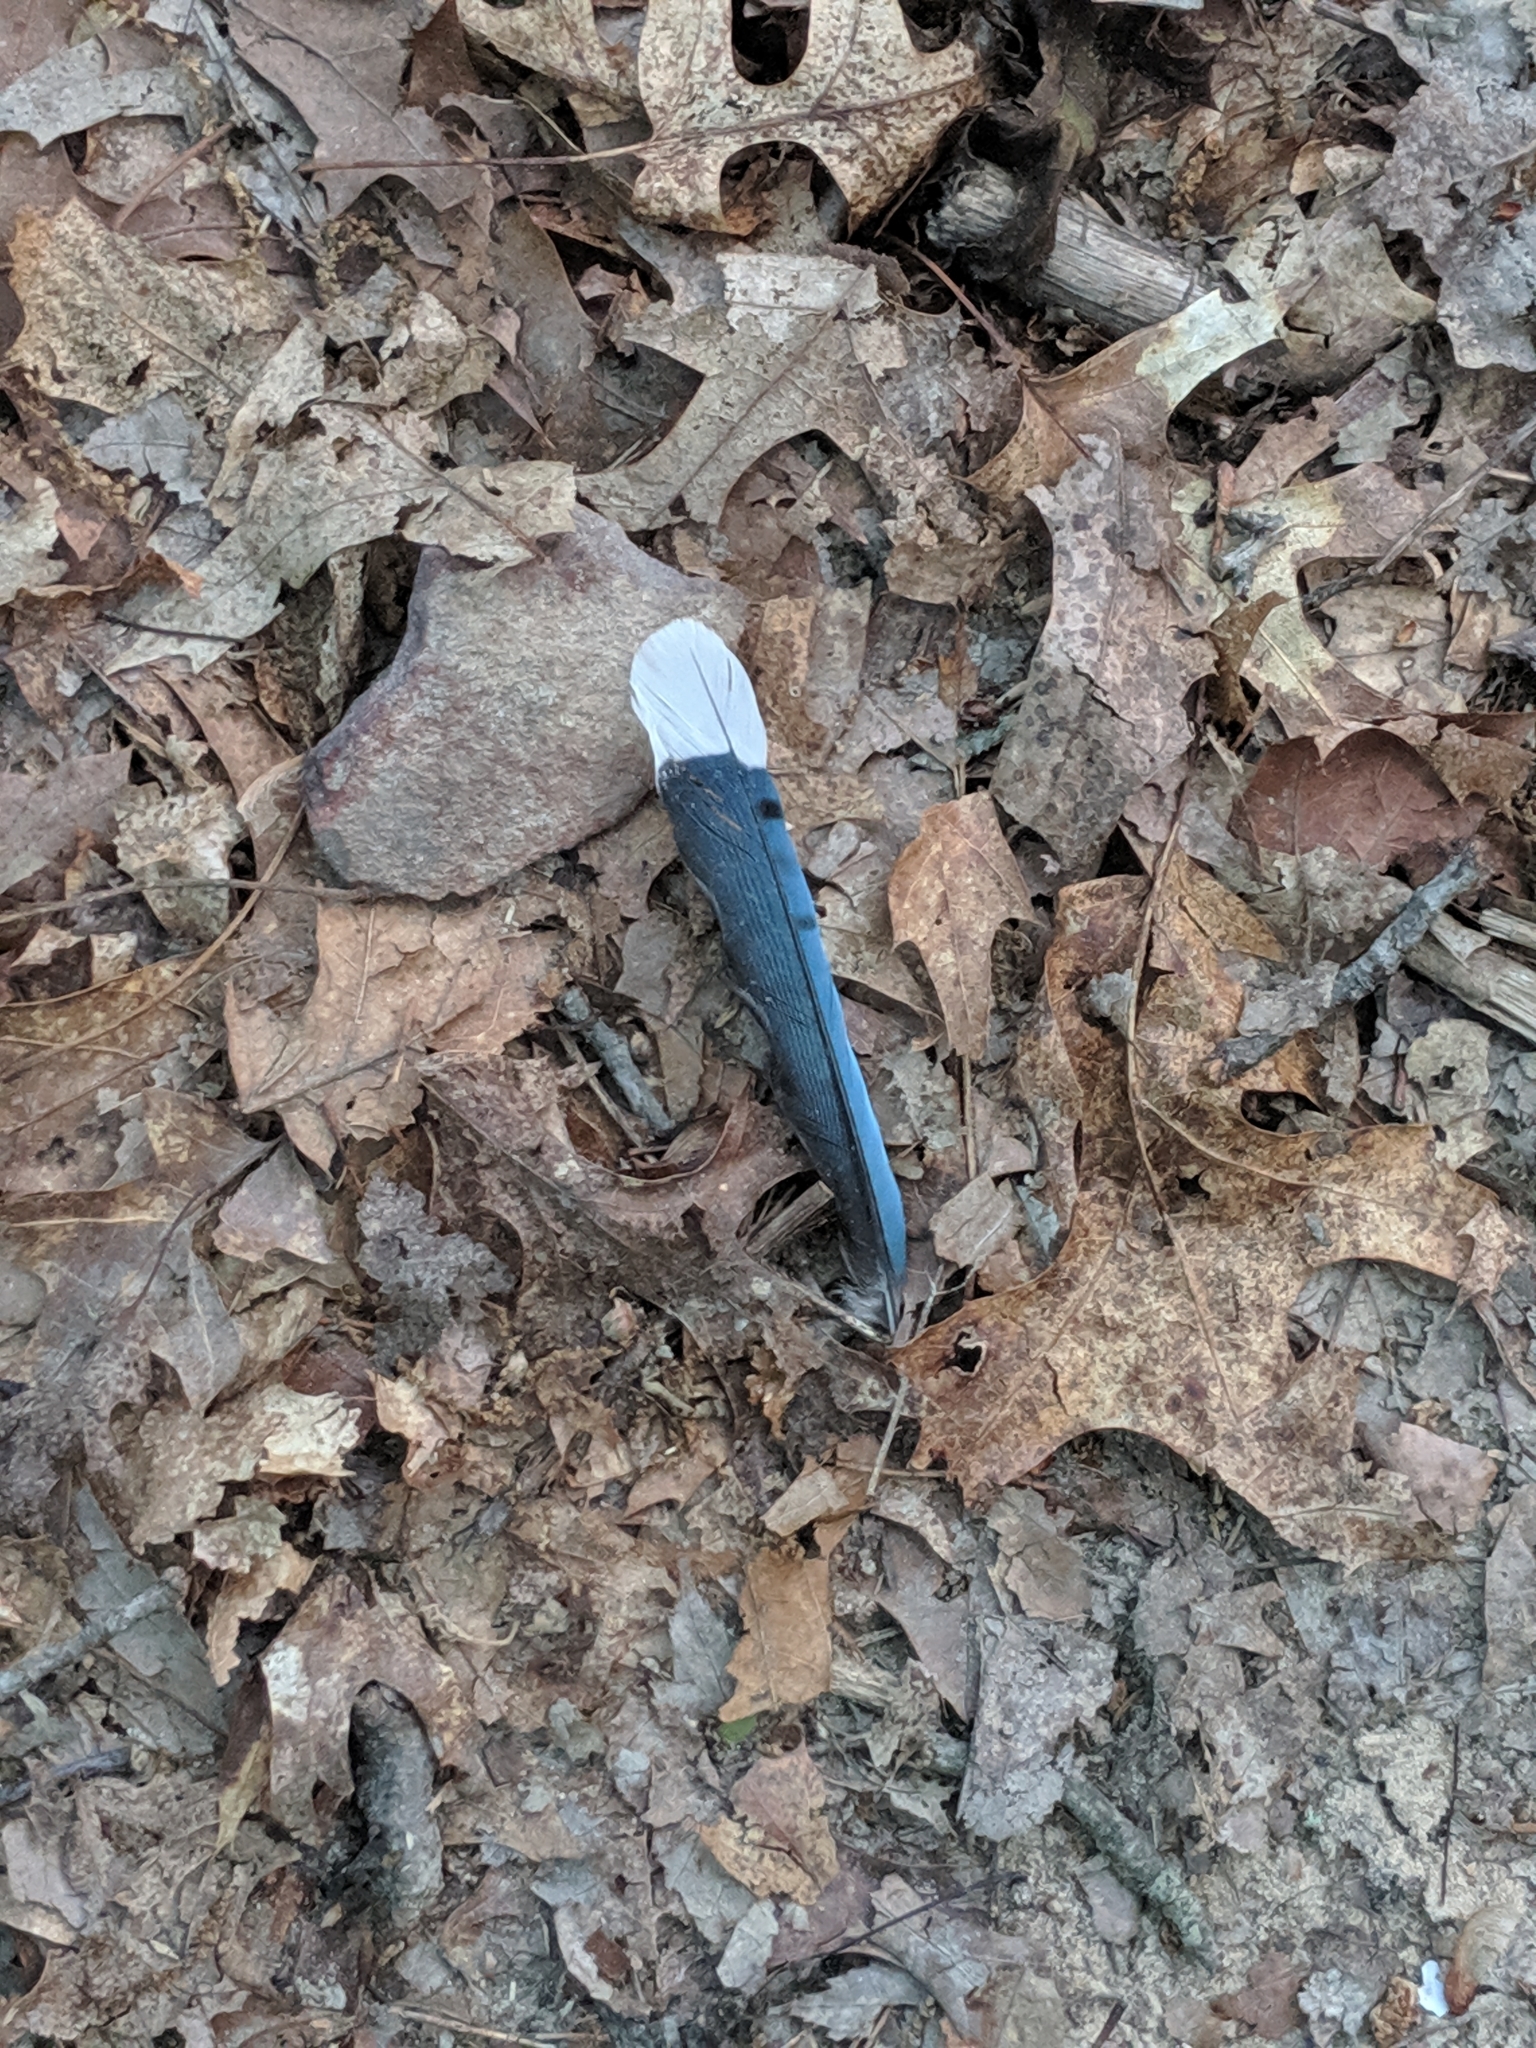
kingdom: Animalia
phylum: Chordata
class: Aves
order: Passeriformes
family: Corvidae
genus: Cyanocitta
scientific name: Cyanocitta cristata
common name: Blue jay
